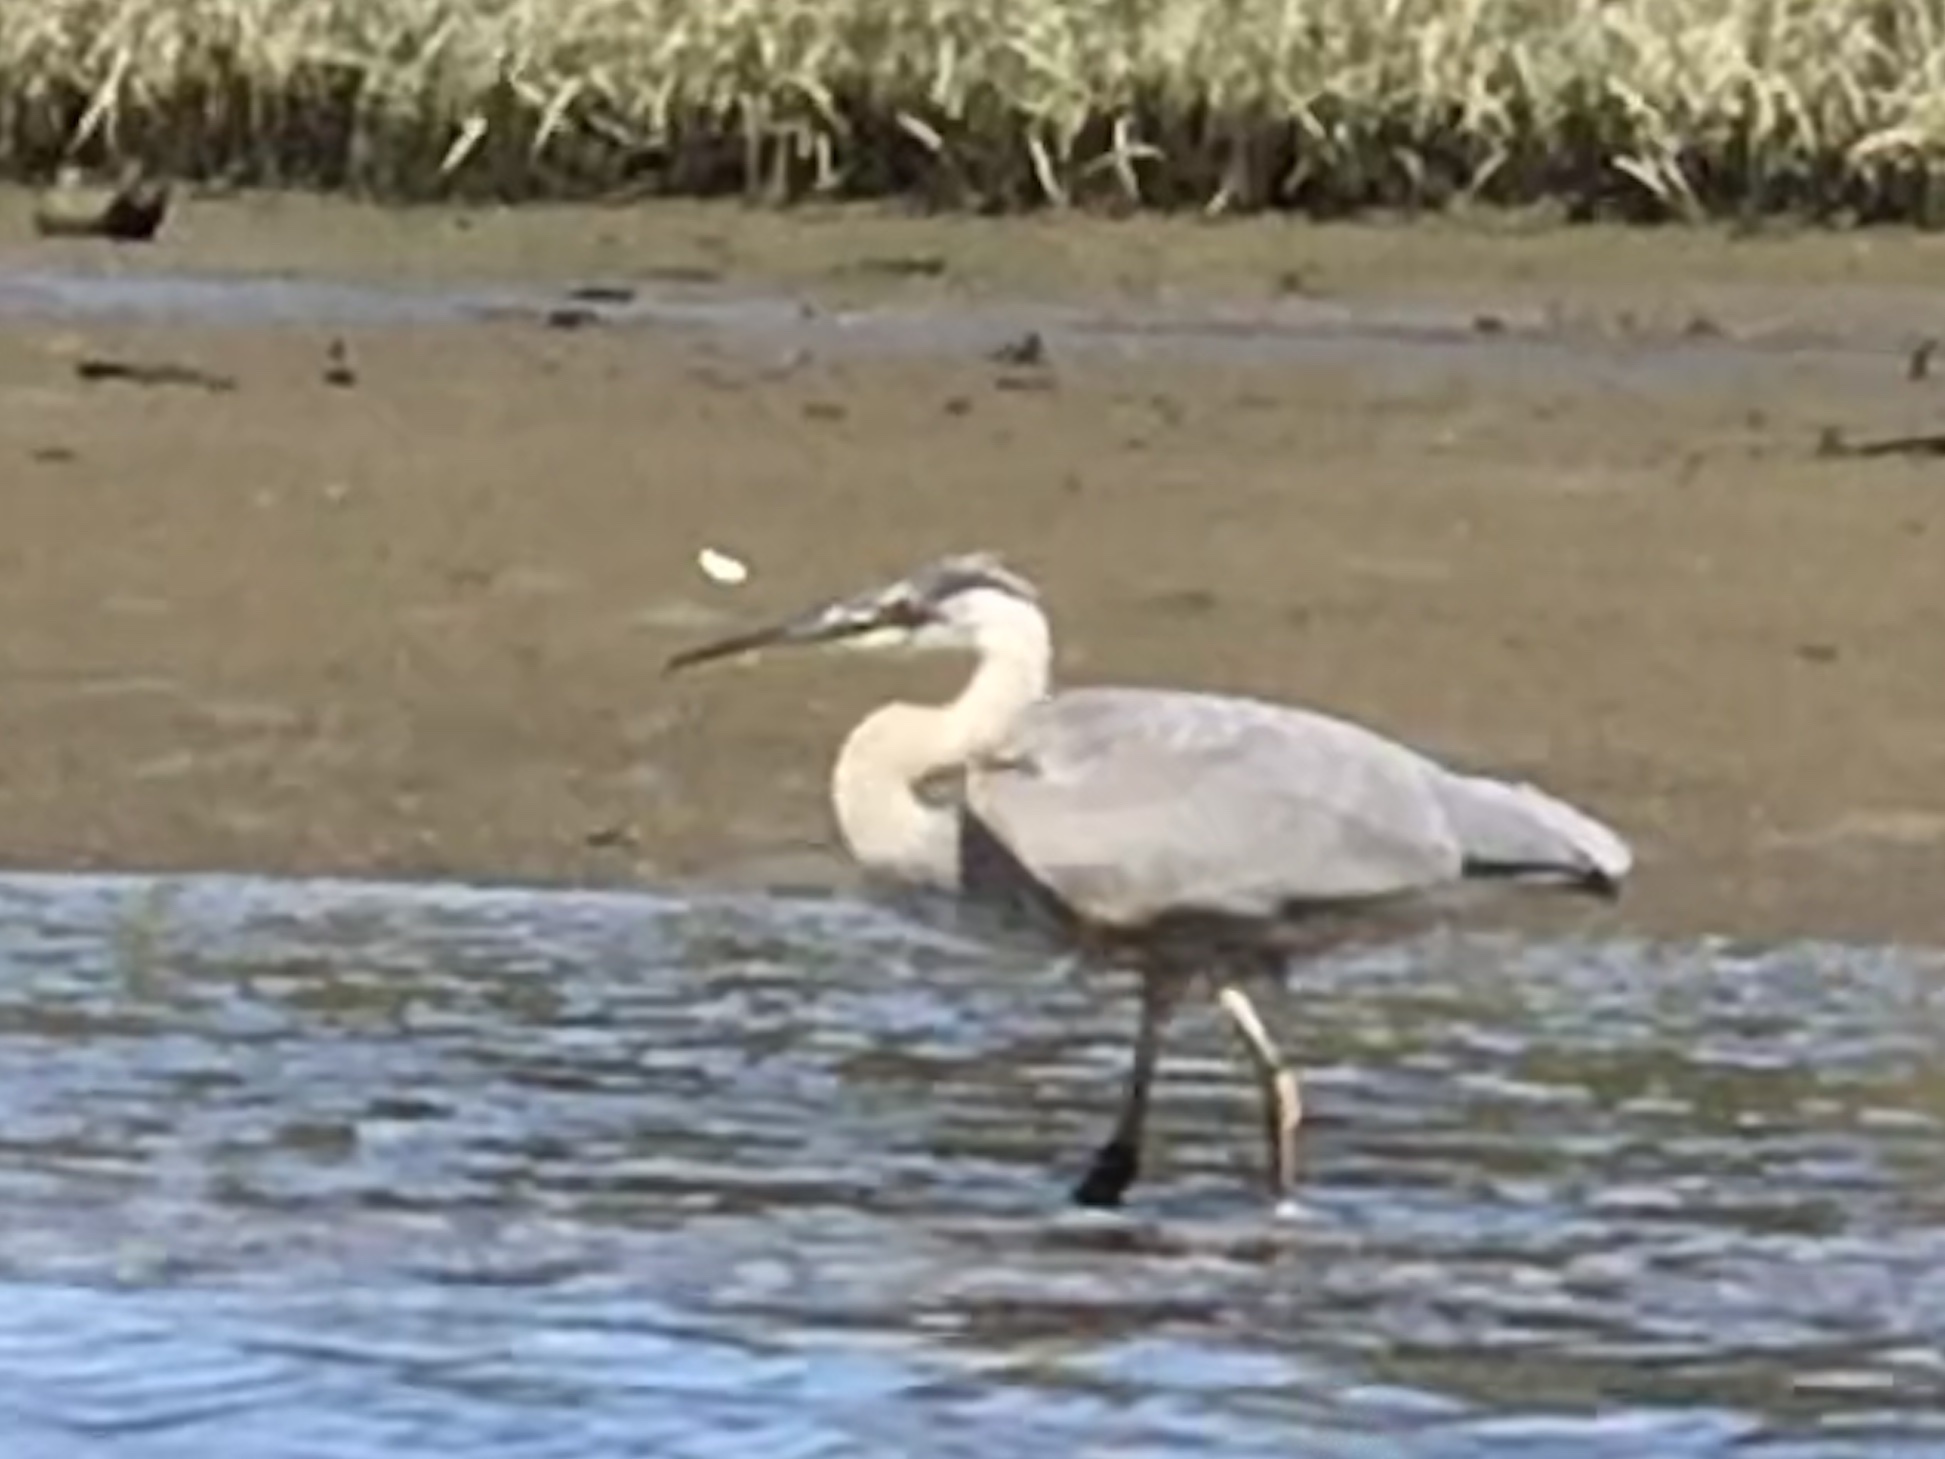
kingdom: Animalia
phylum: Chordata
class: Aves
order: Pelecaniformes
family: Ardeidae
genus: Ardea
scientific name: Ardea herodias
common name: Great blue heron
